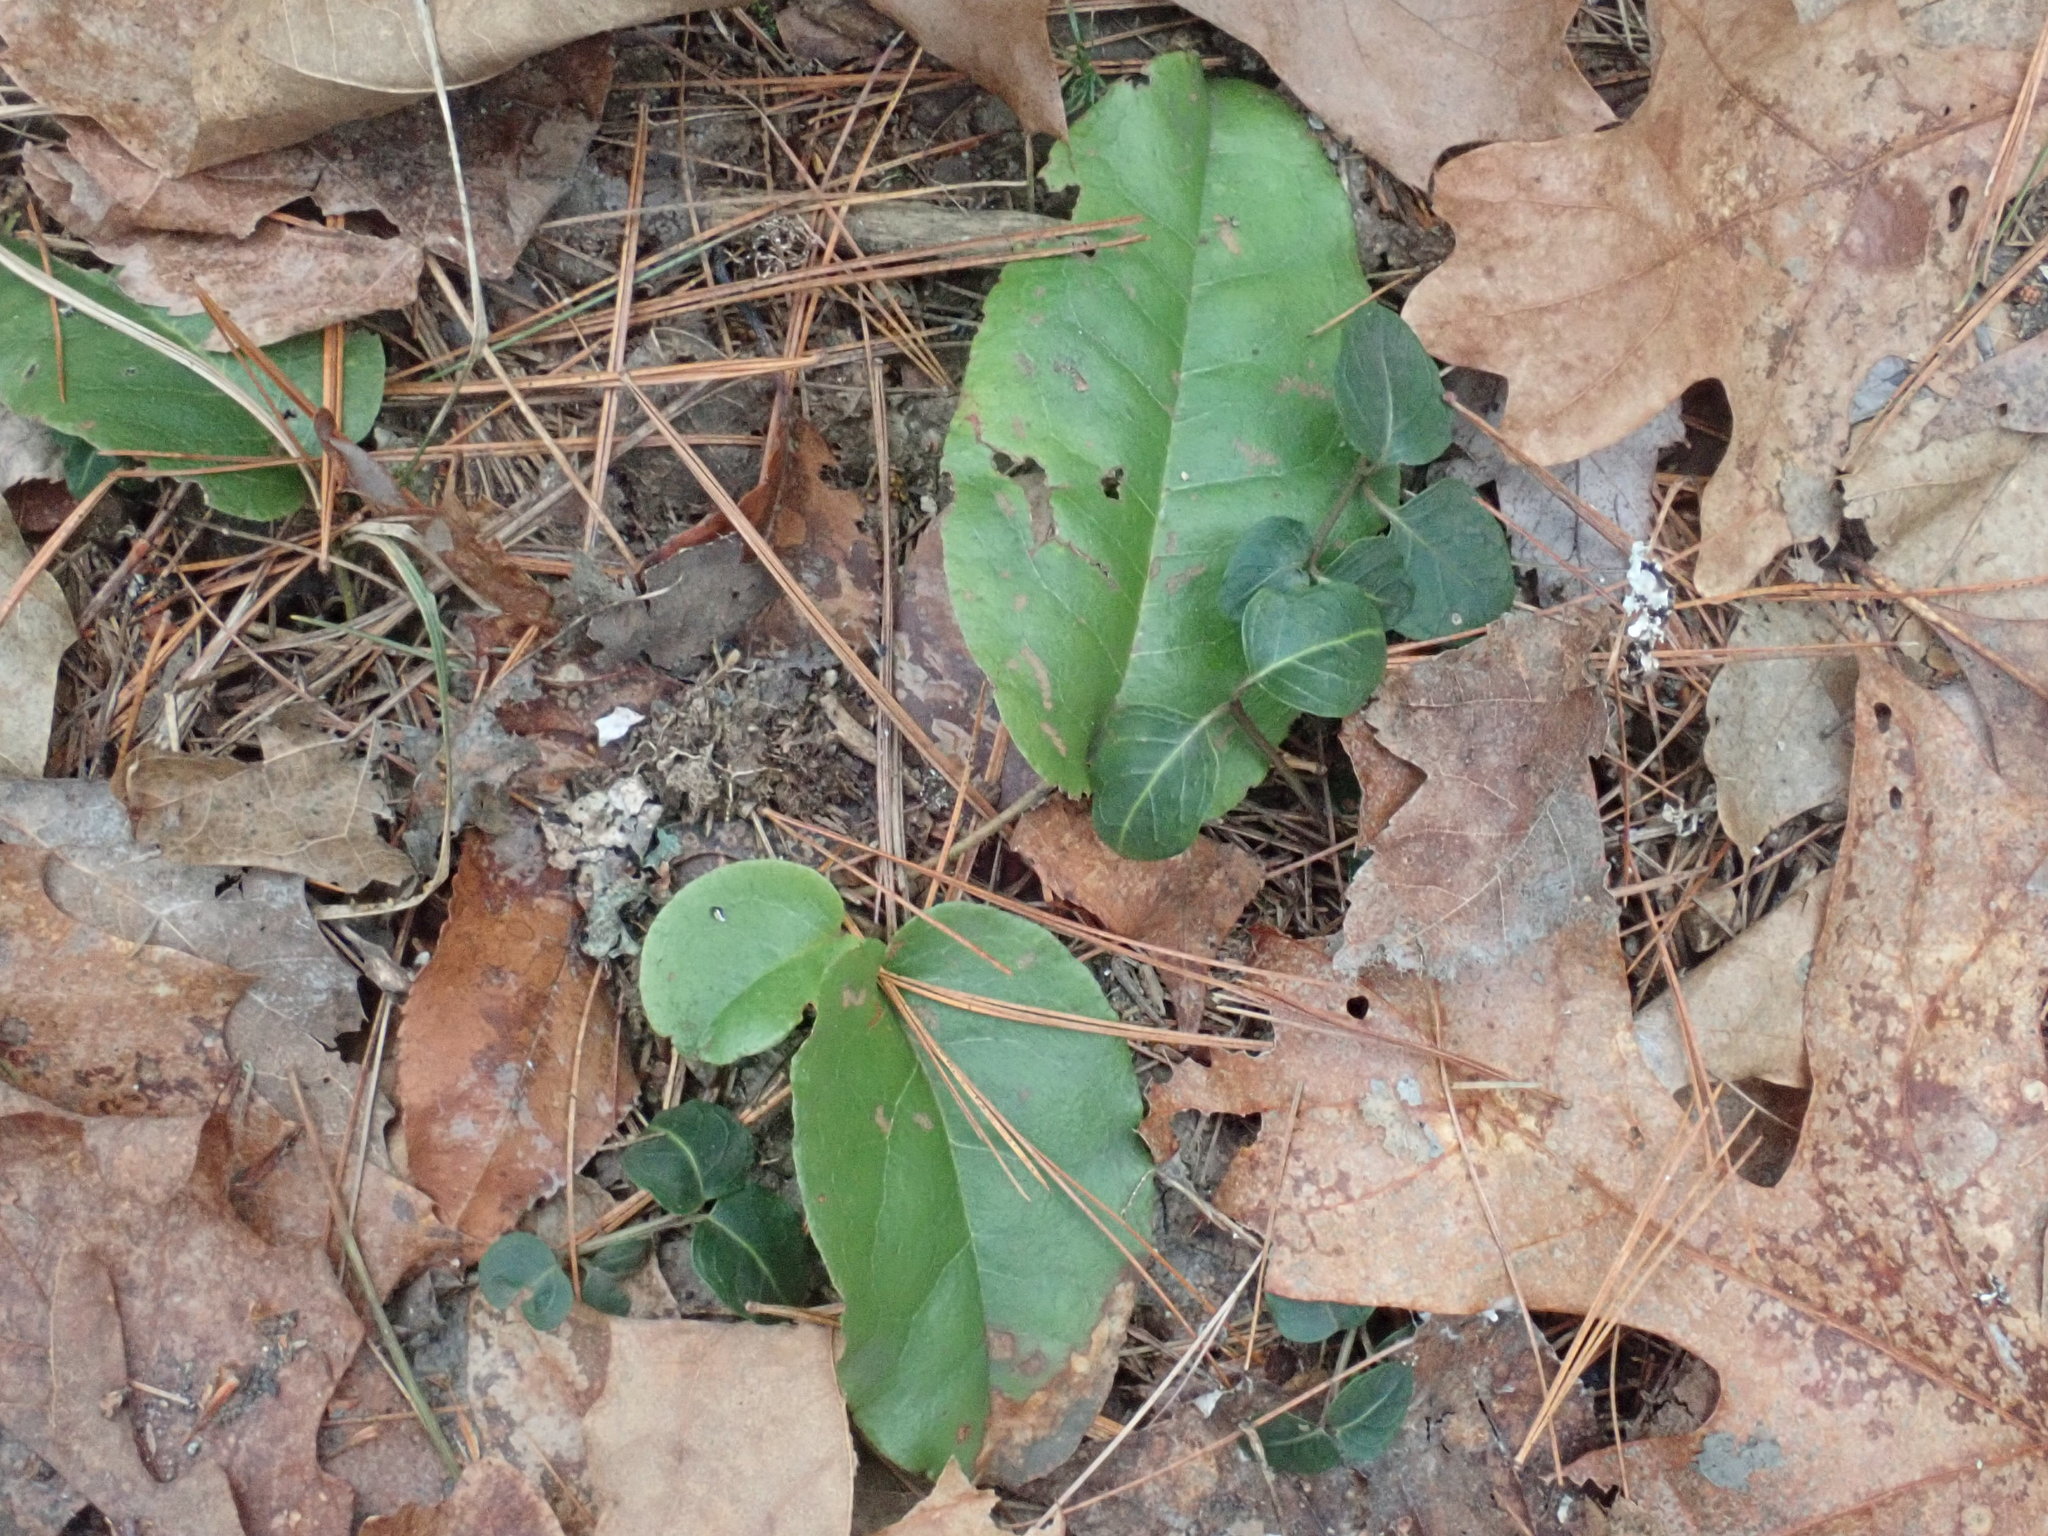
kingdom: Plantae
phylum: Tracheophyta
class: Magnoliopsida
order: Ericales
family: Ericaceae
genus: Epigaea
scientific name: Epigaea repens
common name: Gravelroot
